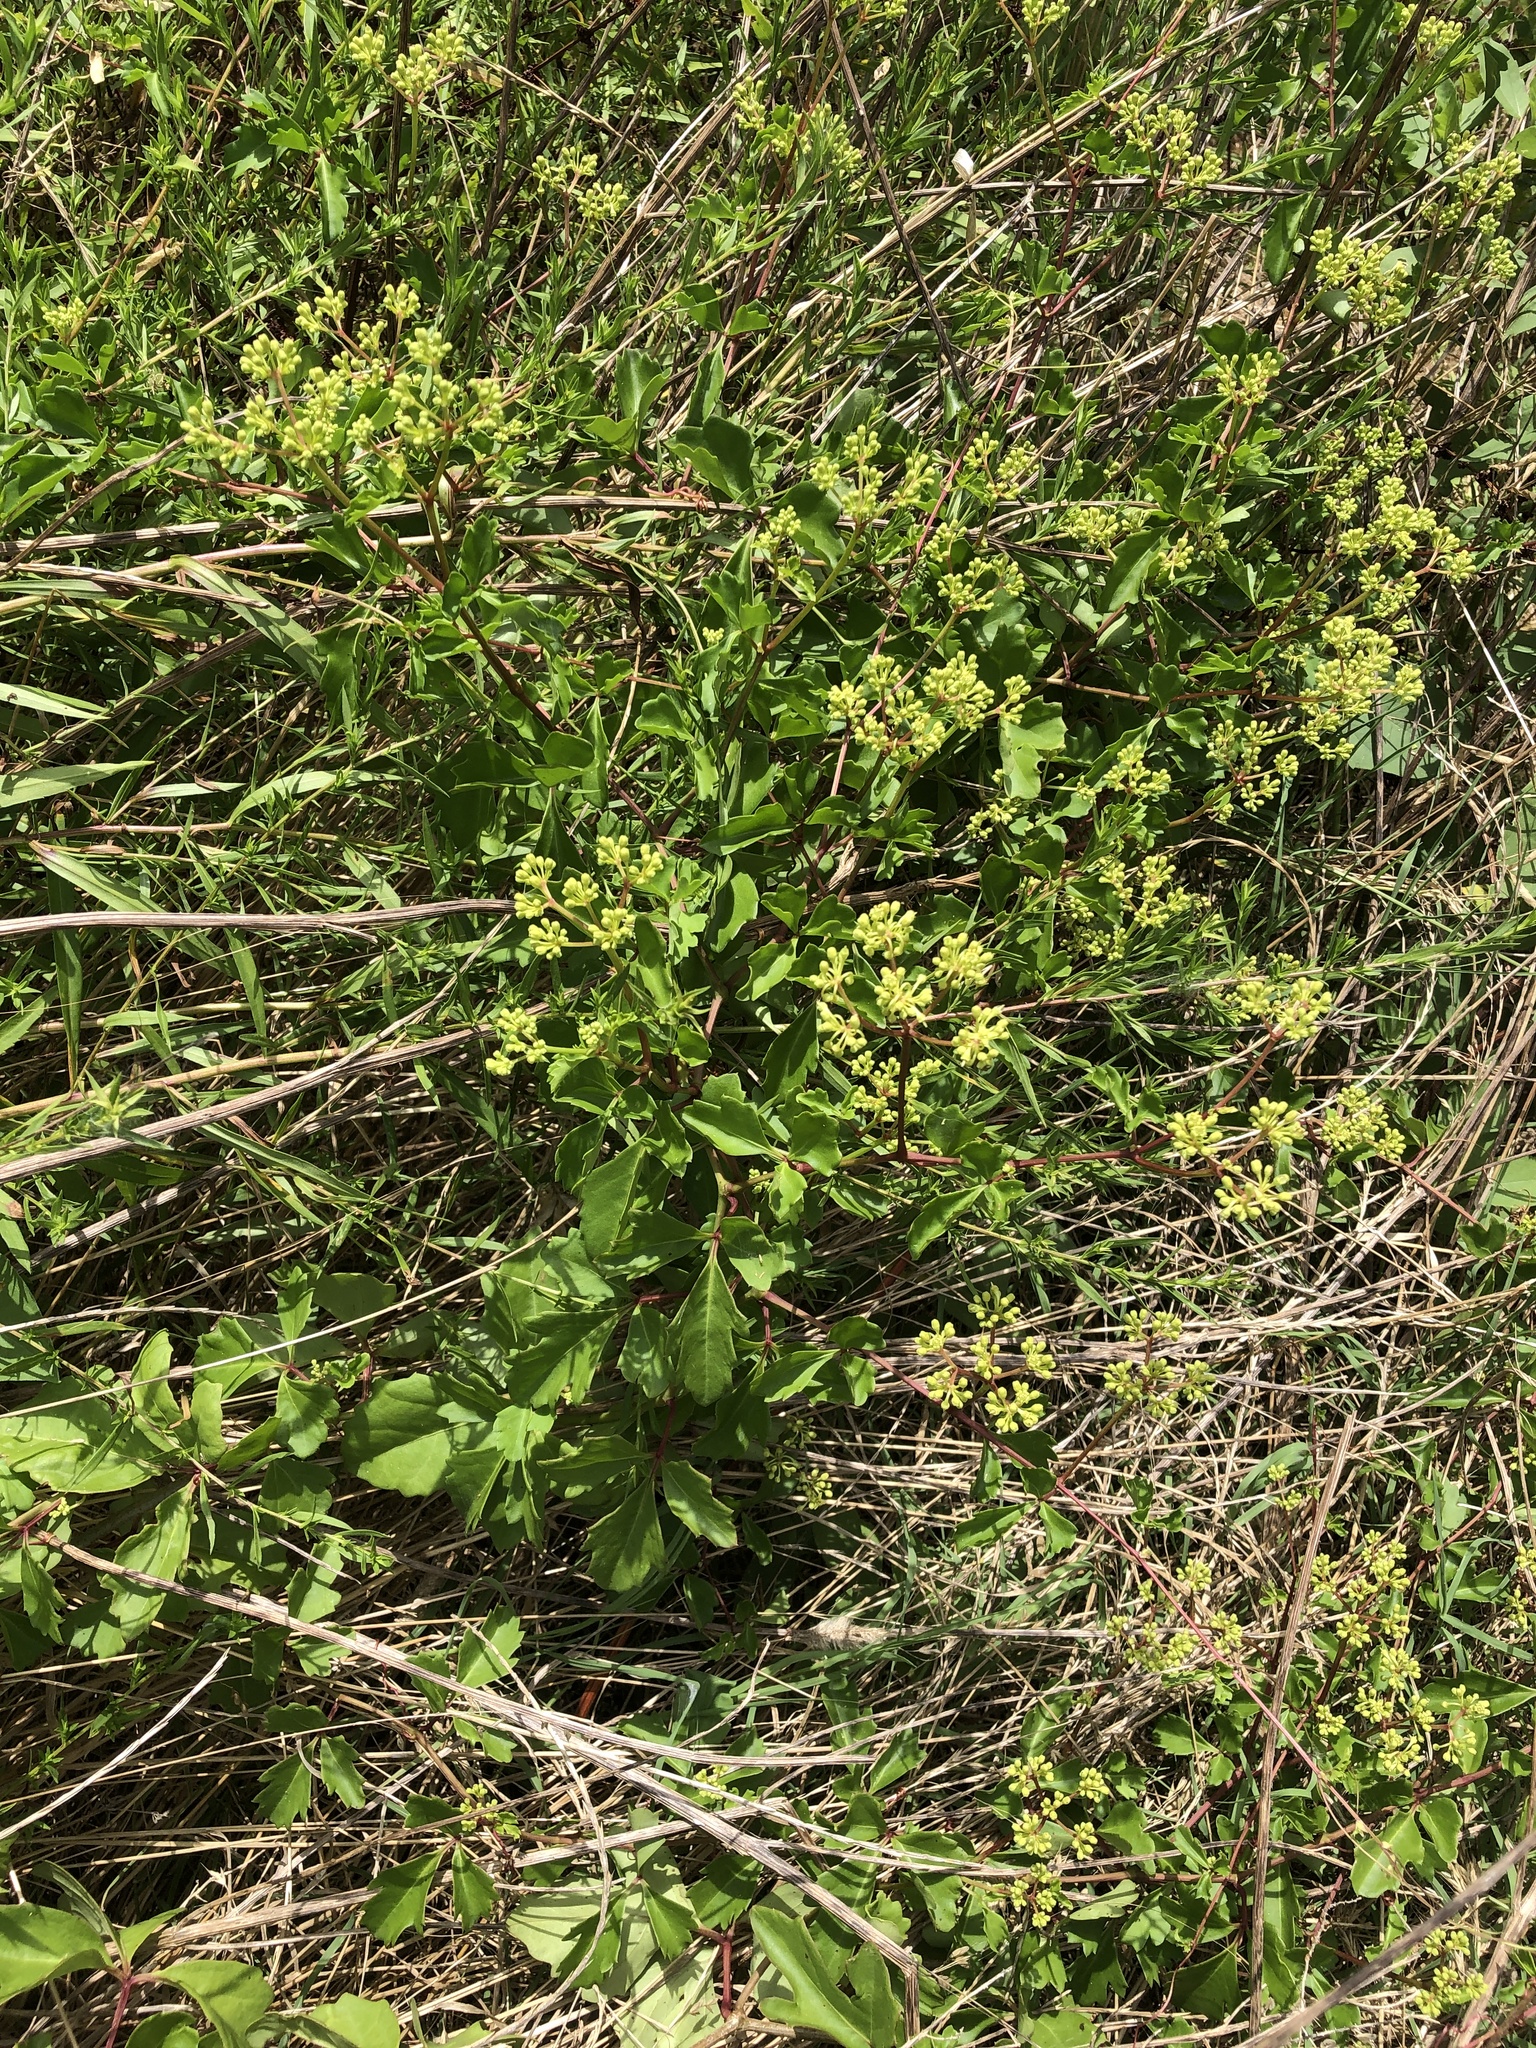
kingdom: Plantae
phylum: Tracheophyta
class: Magnoliopsida
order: Vitales
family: Vitaceae
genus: Cissus
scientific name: Cissus trifoliata
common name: Vine-sorrel
